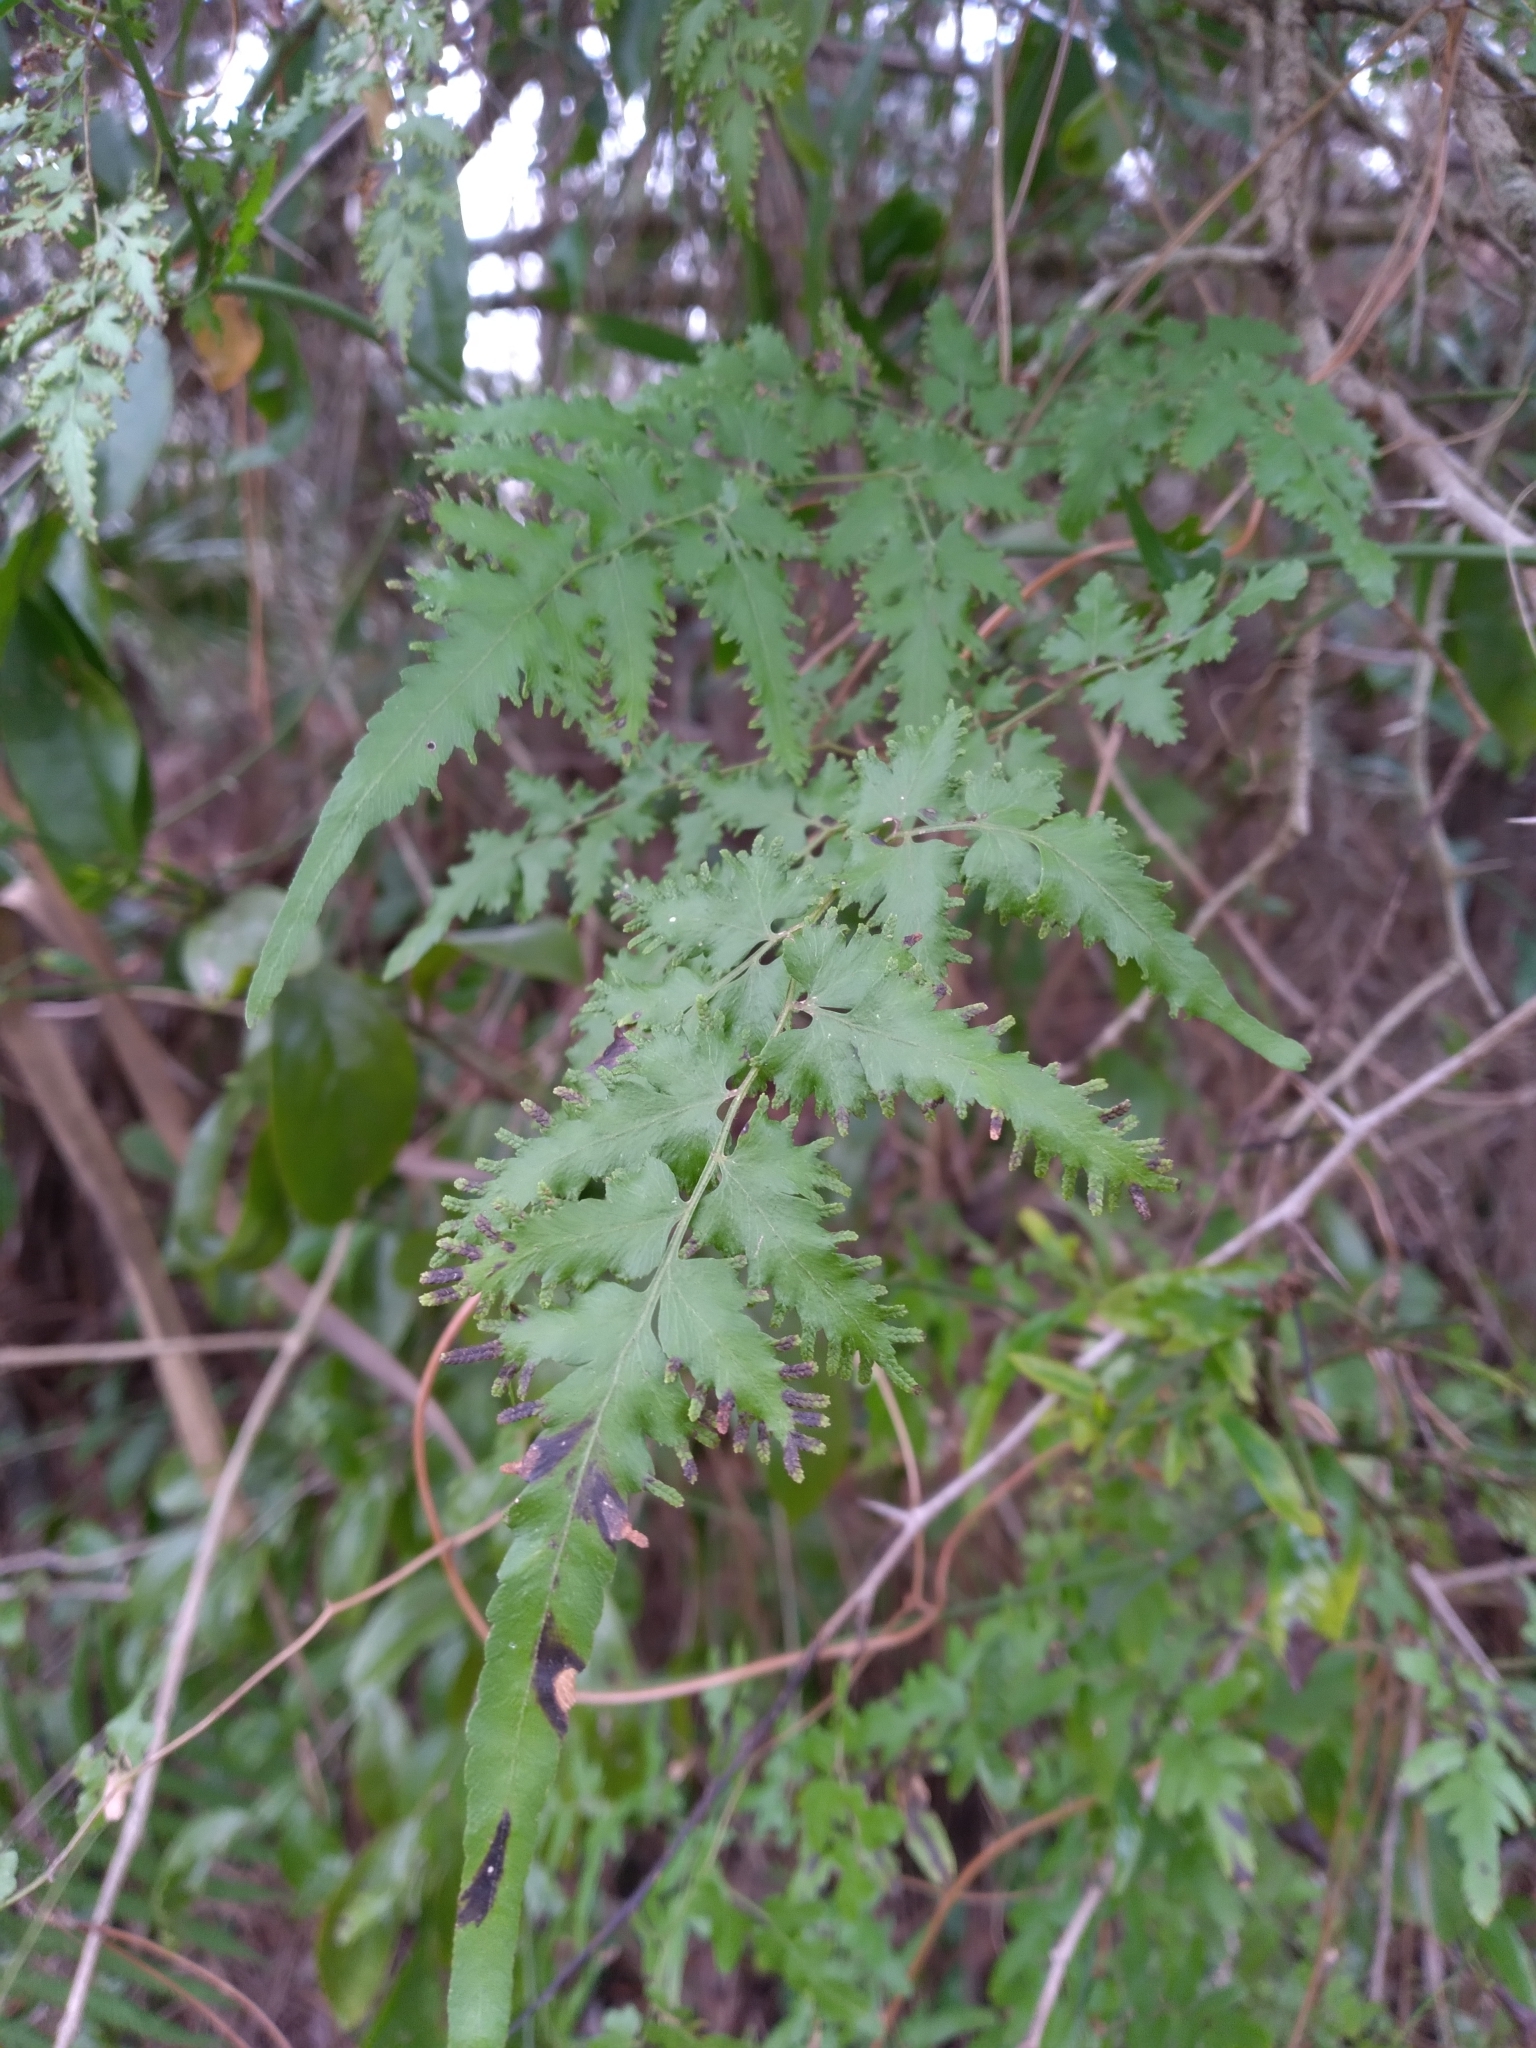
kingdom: Plantae
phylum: Tracheophyta
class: Polypodiopsida
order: Schizaeales
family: Lygodiaceae
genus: Lygodium
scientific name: Lygodium japonicum
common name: Japanese climbing fern
